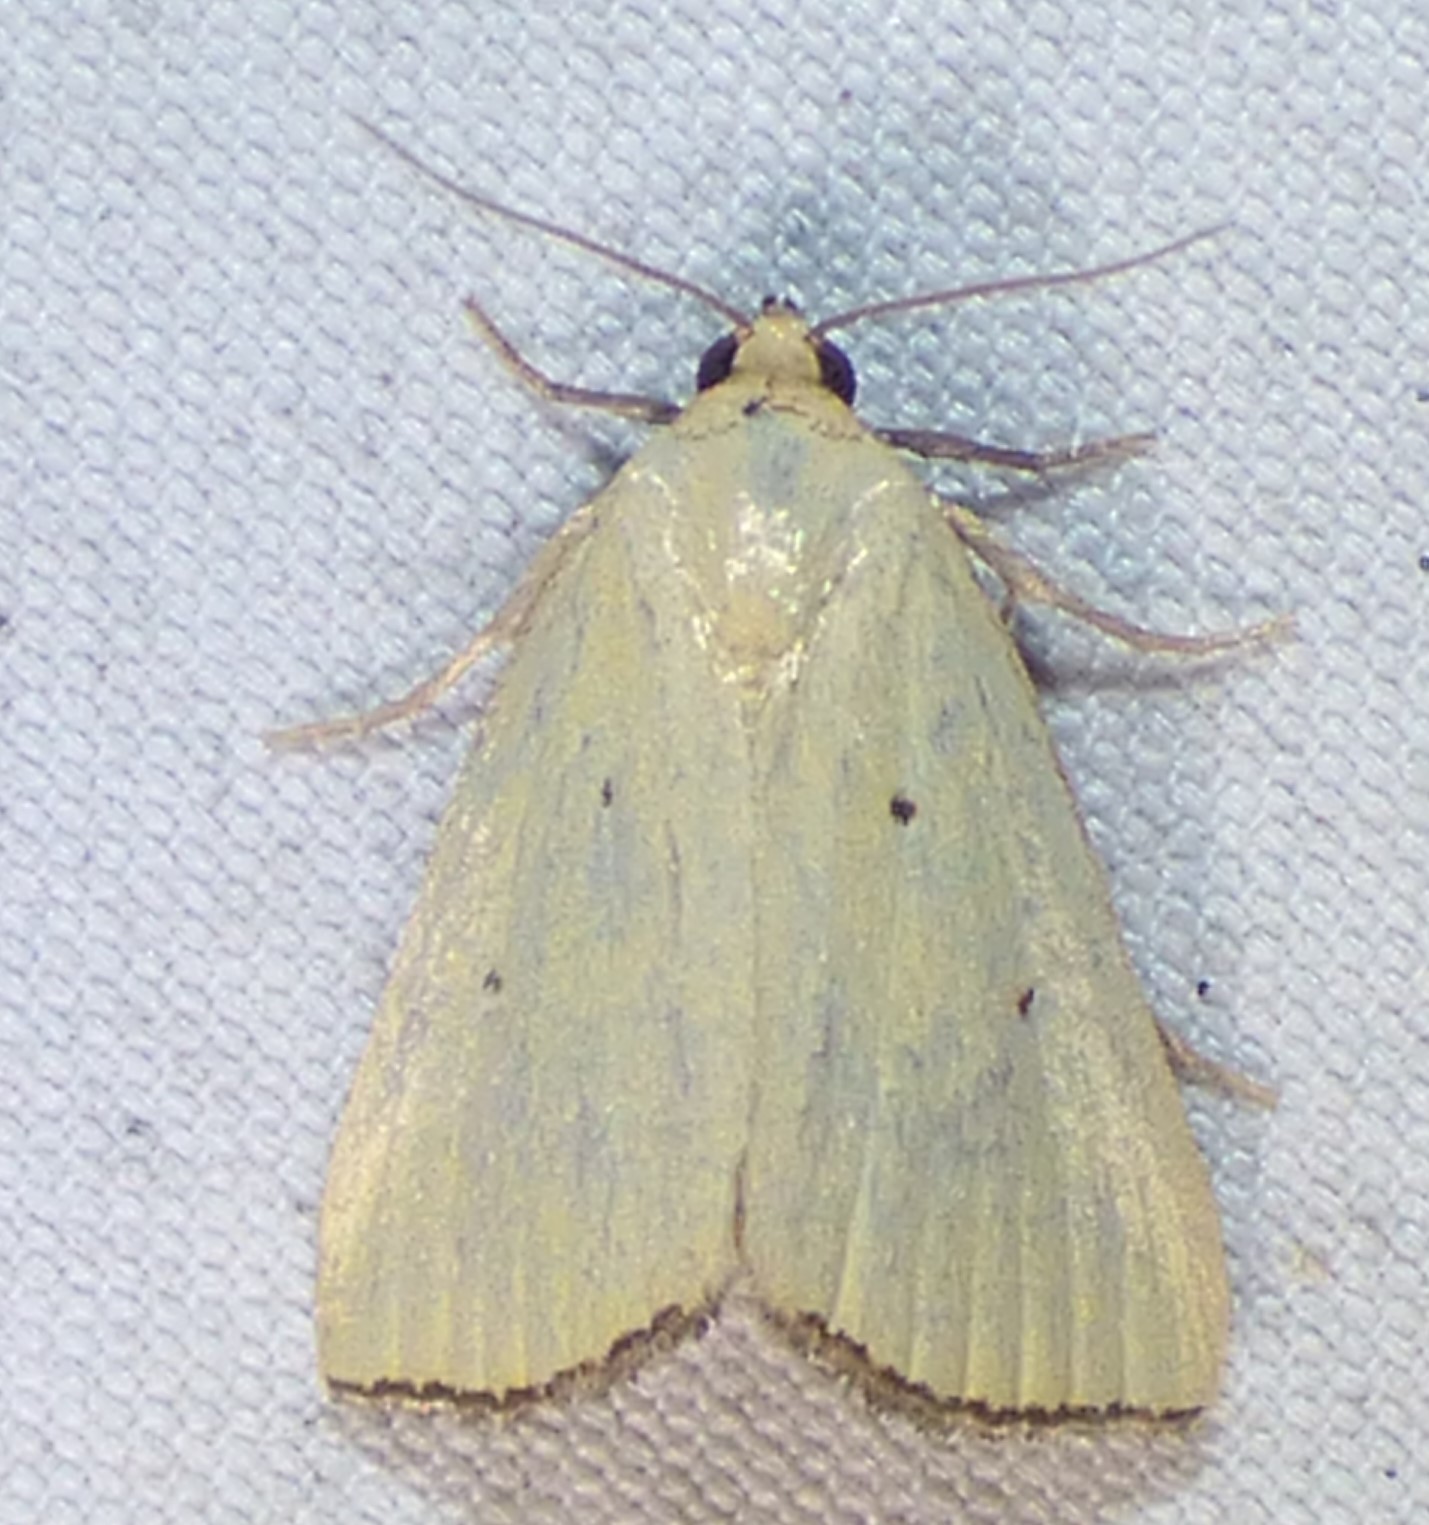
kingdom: Animalia
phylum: Arthropoda
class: Insecta
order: Lepidoptera
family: Noctuidae
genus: Marimatha
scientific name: Marimatha nigrofimbria
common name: Black-bordered lemon moth
